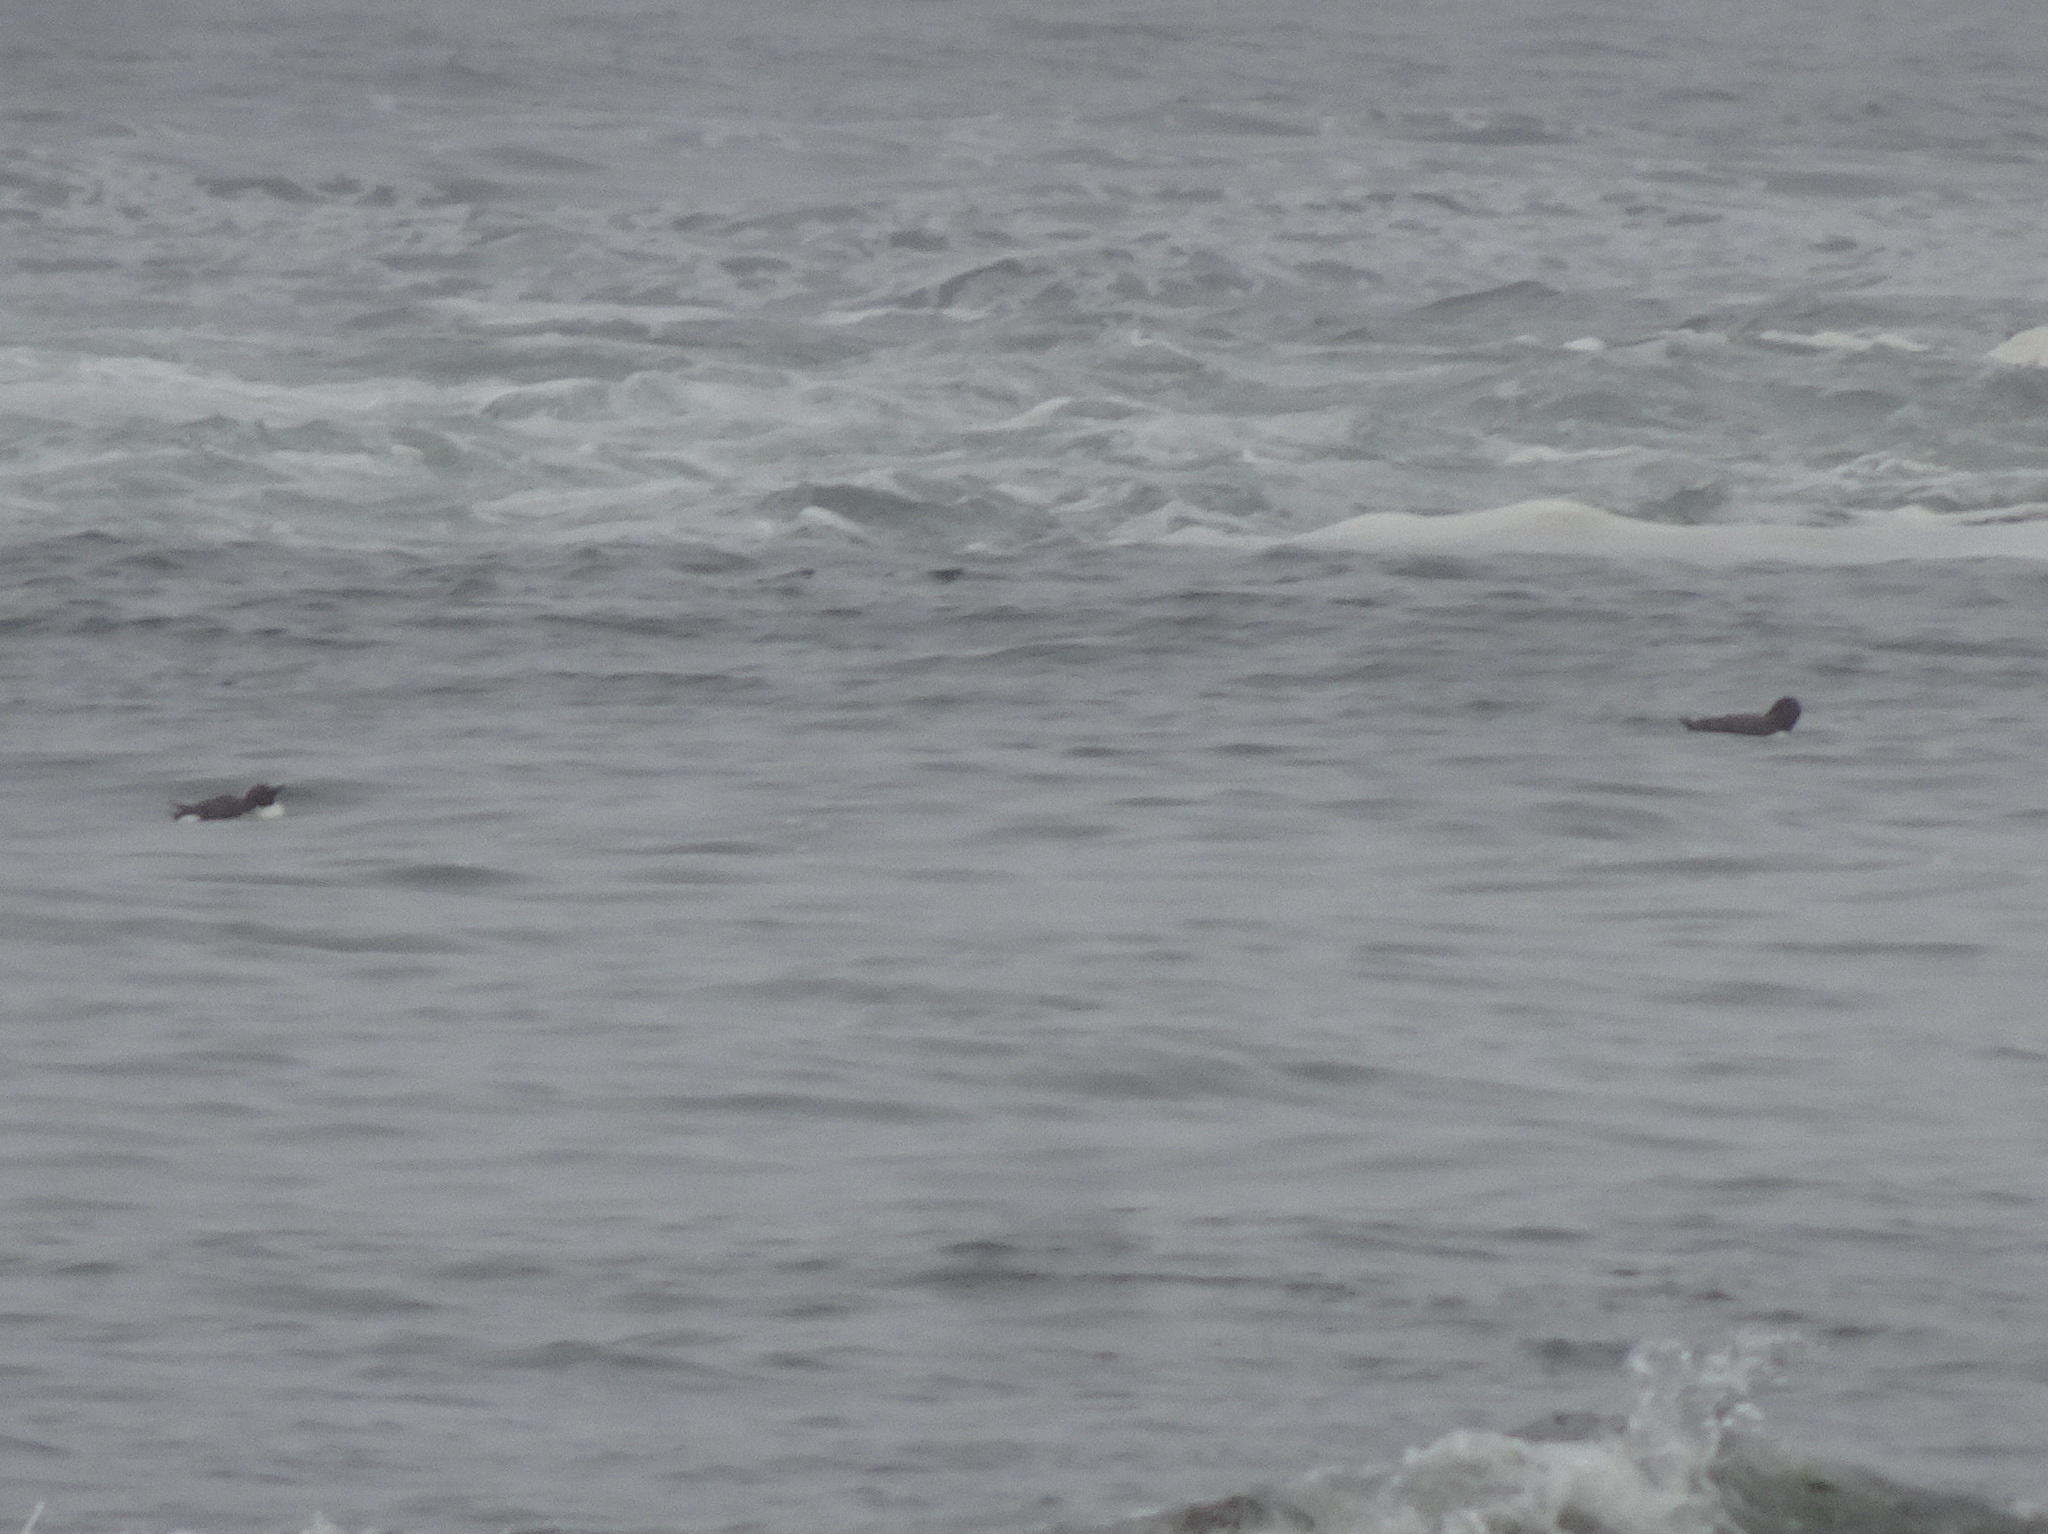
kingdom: Animalia
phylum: Chordata
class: Aves
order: Charadriiformes
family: Alcidae
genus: Uria
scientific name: Uria aalge
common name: Common murre
